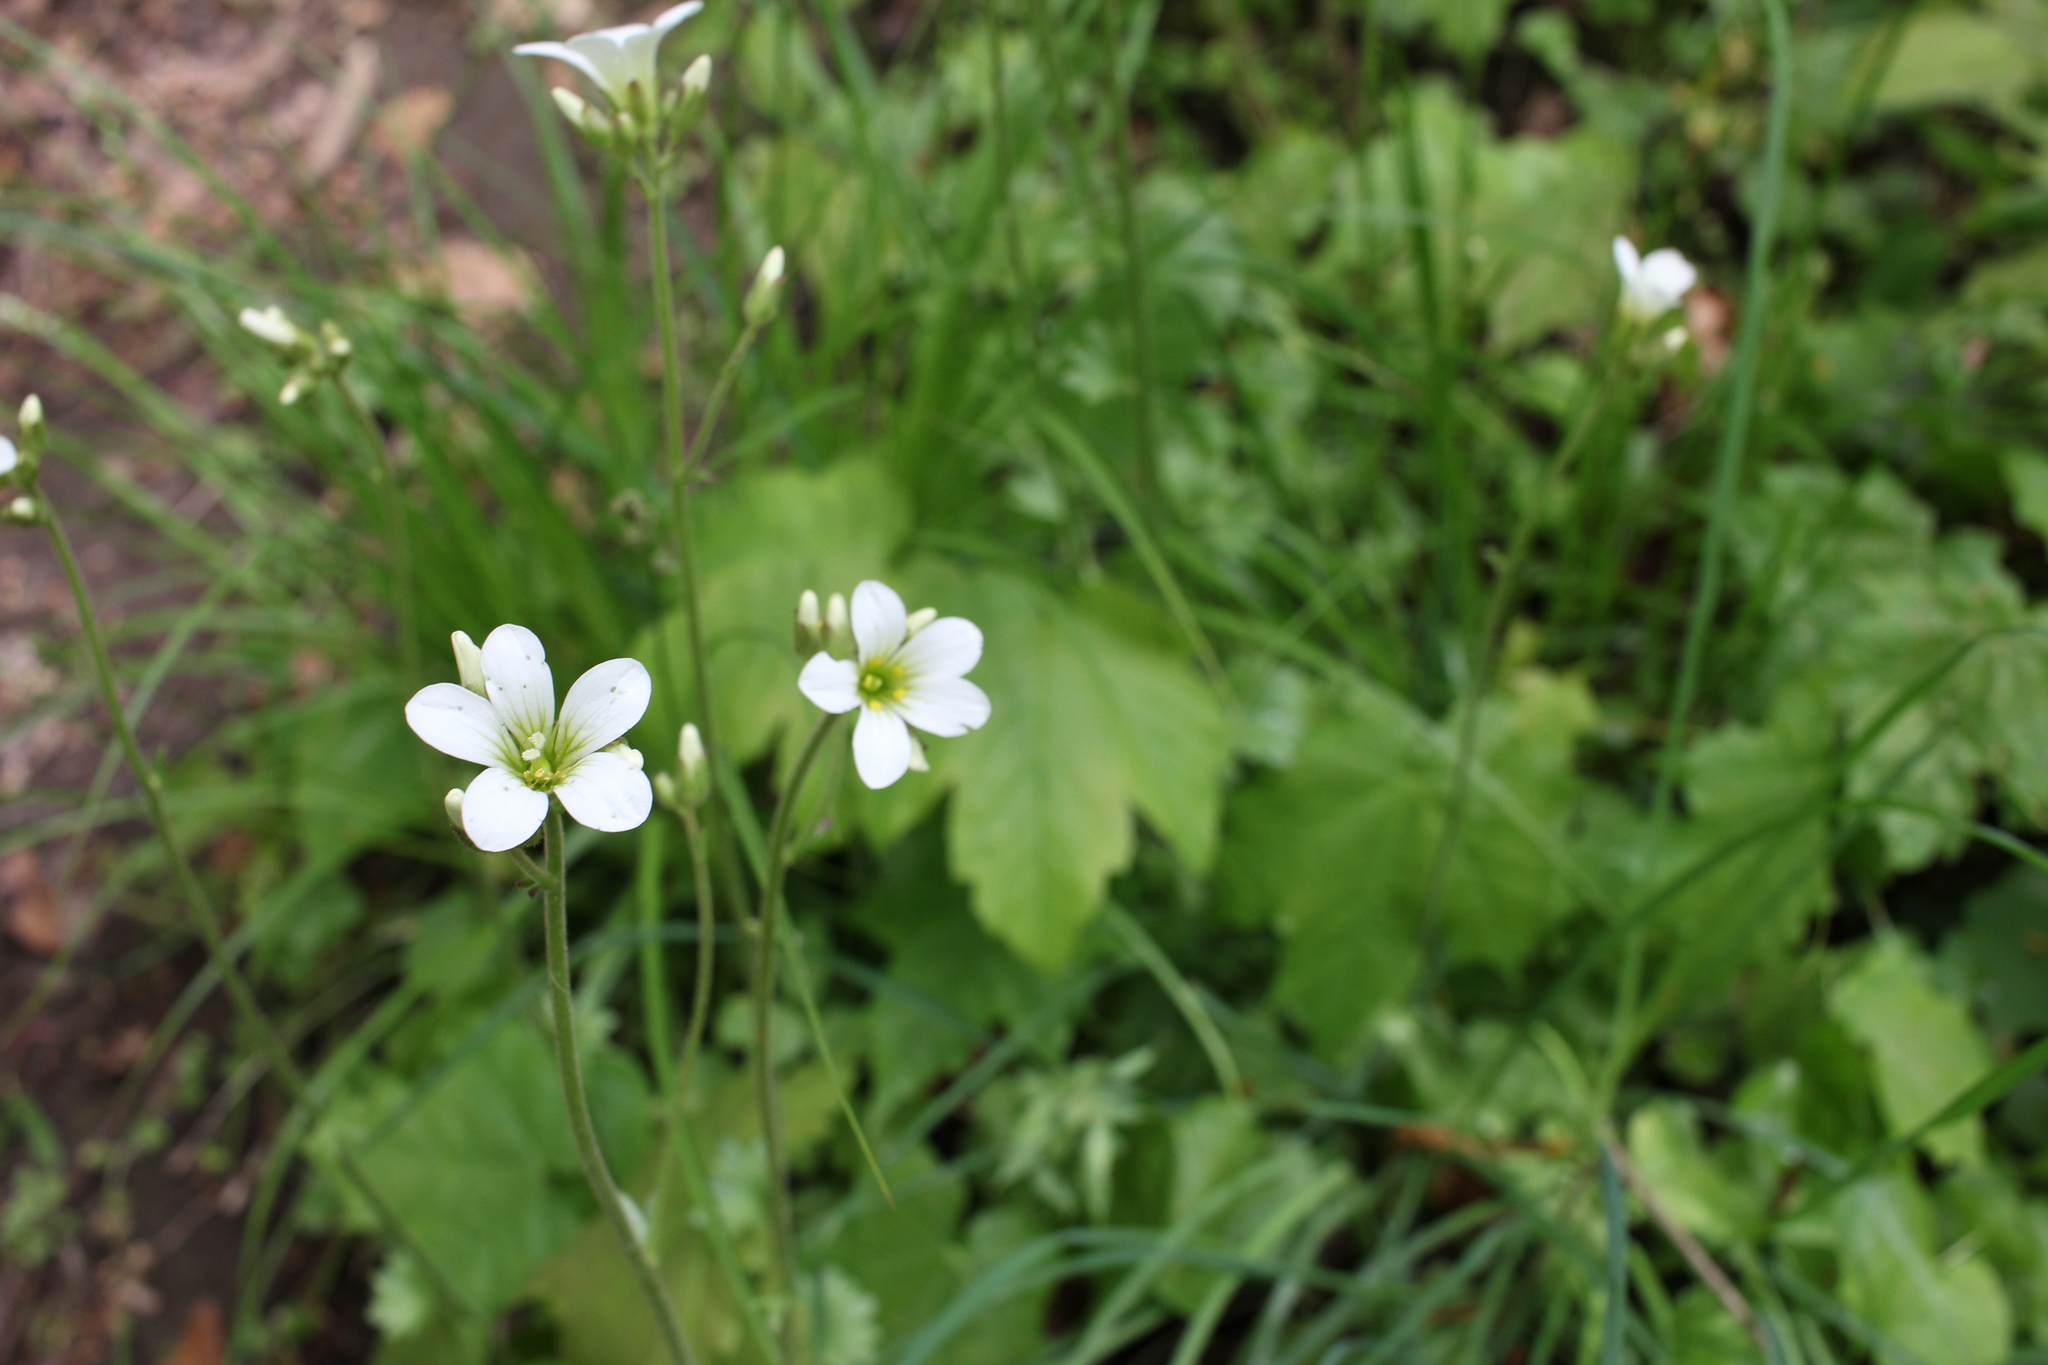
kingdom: Plantae
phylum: Tracheophyta
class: Magnoliopsida
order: Saxifragales
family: Saxifragaceae
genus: Saxifraga
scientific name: Saxifraga granulata
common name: Meadow saxifrage
